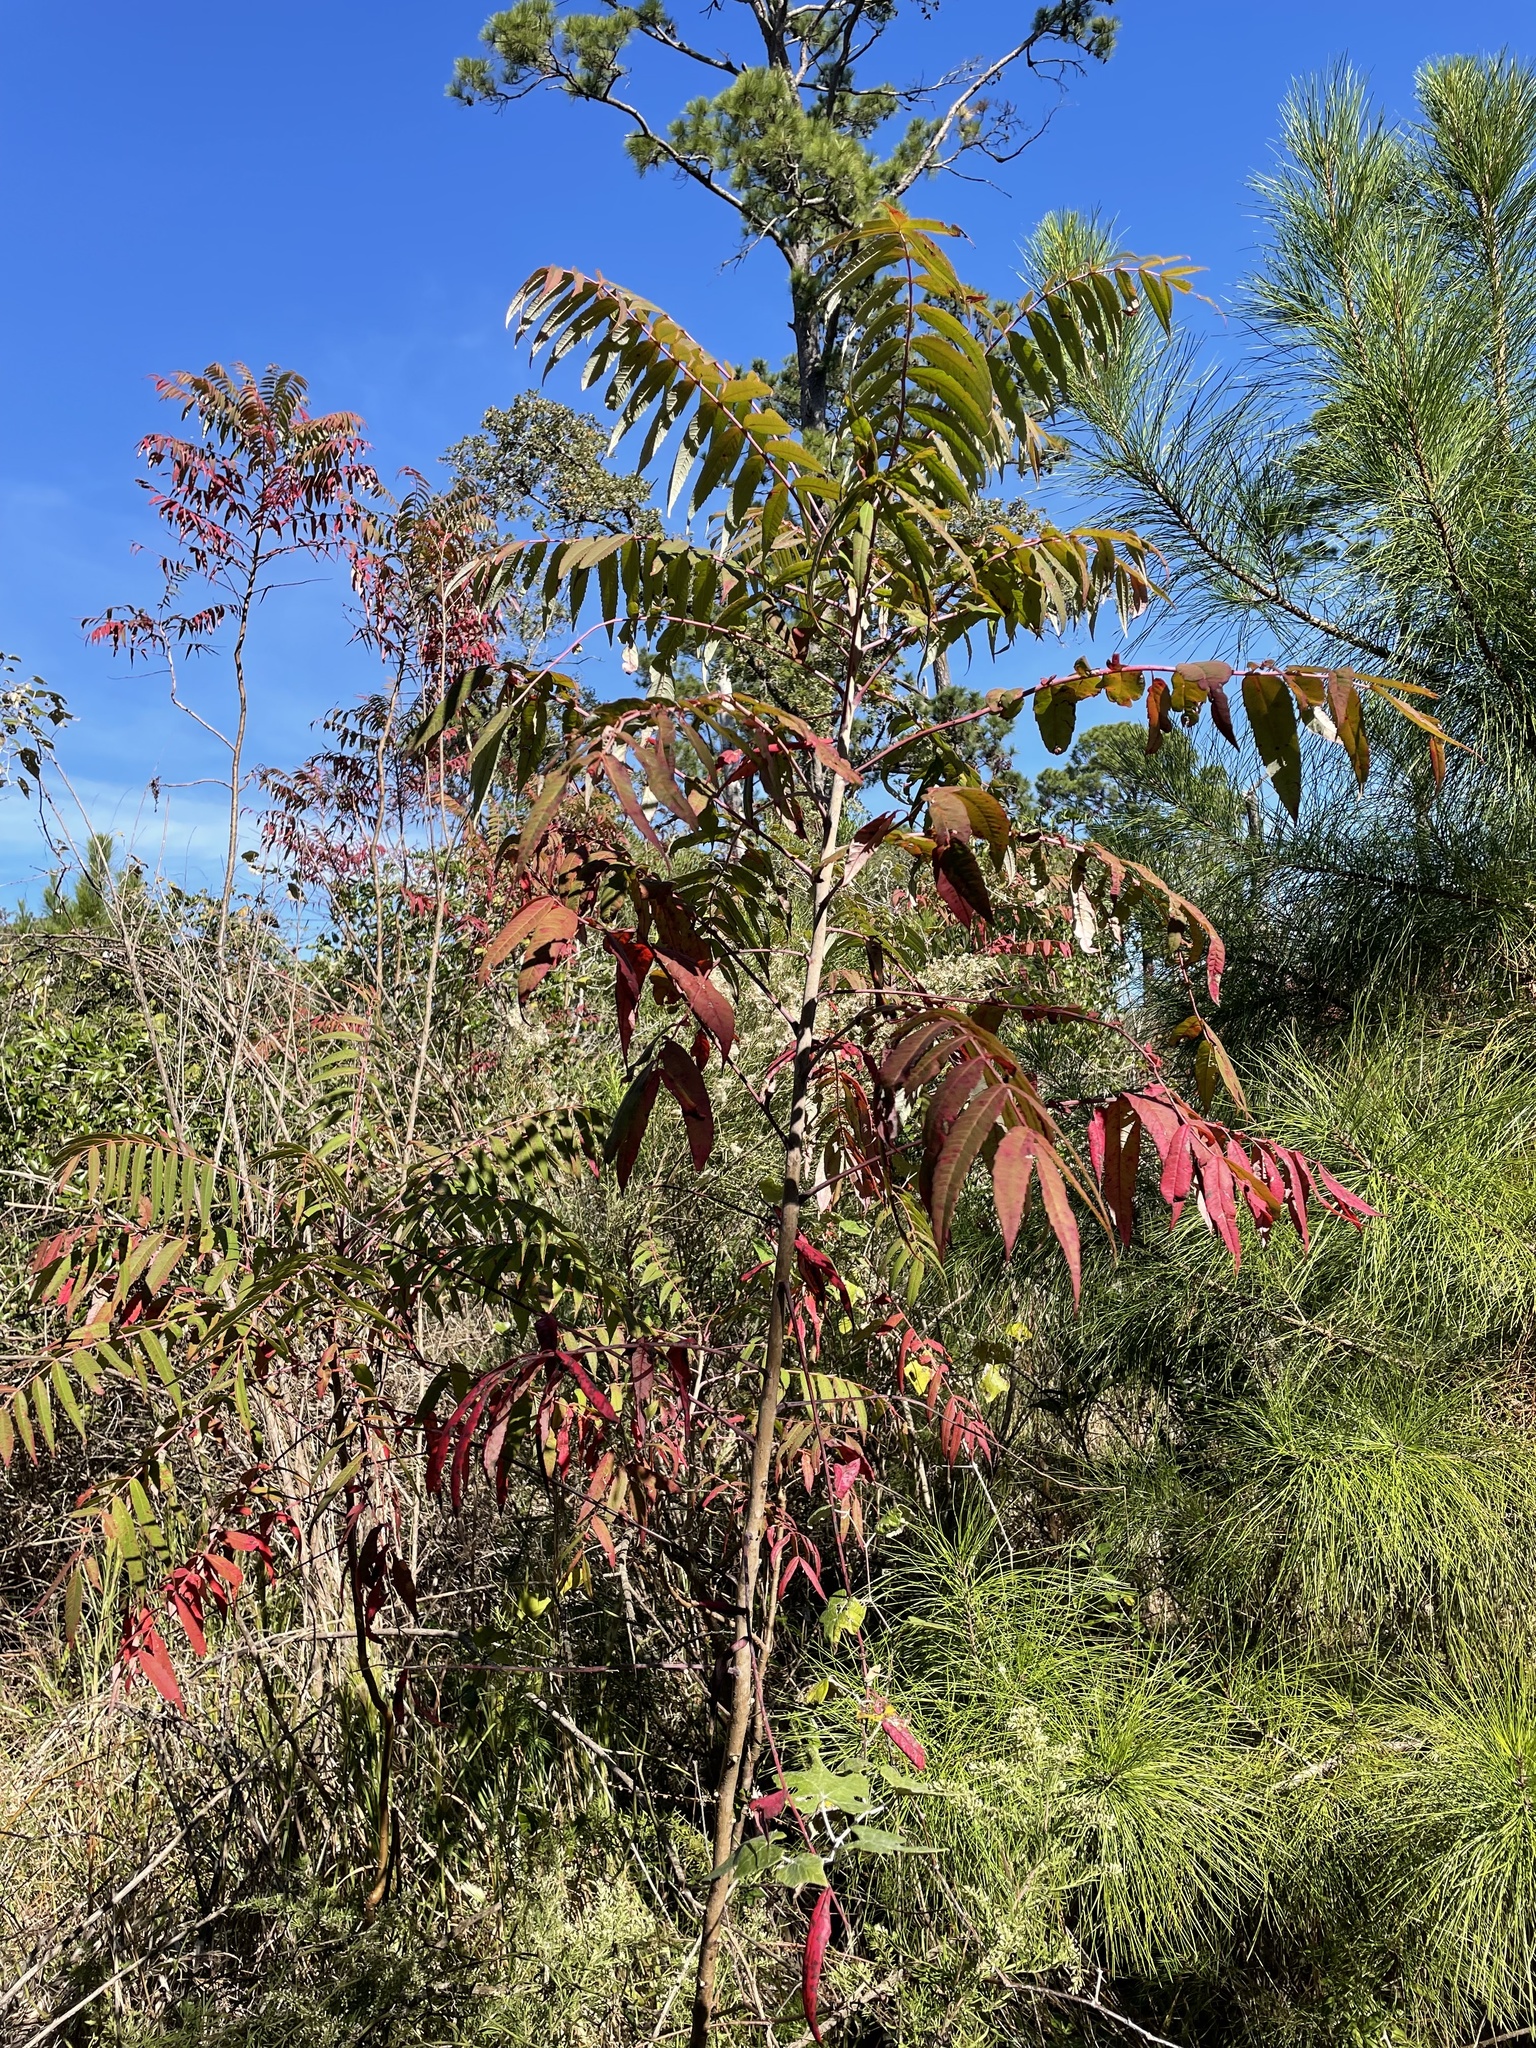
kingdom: Plantae
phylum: Tracheophyta
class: Magnoliopsida
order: Sapindales
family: Anacardiaceae
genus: Rhus
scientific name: Rhus glabra
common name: Scarlet sumac
